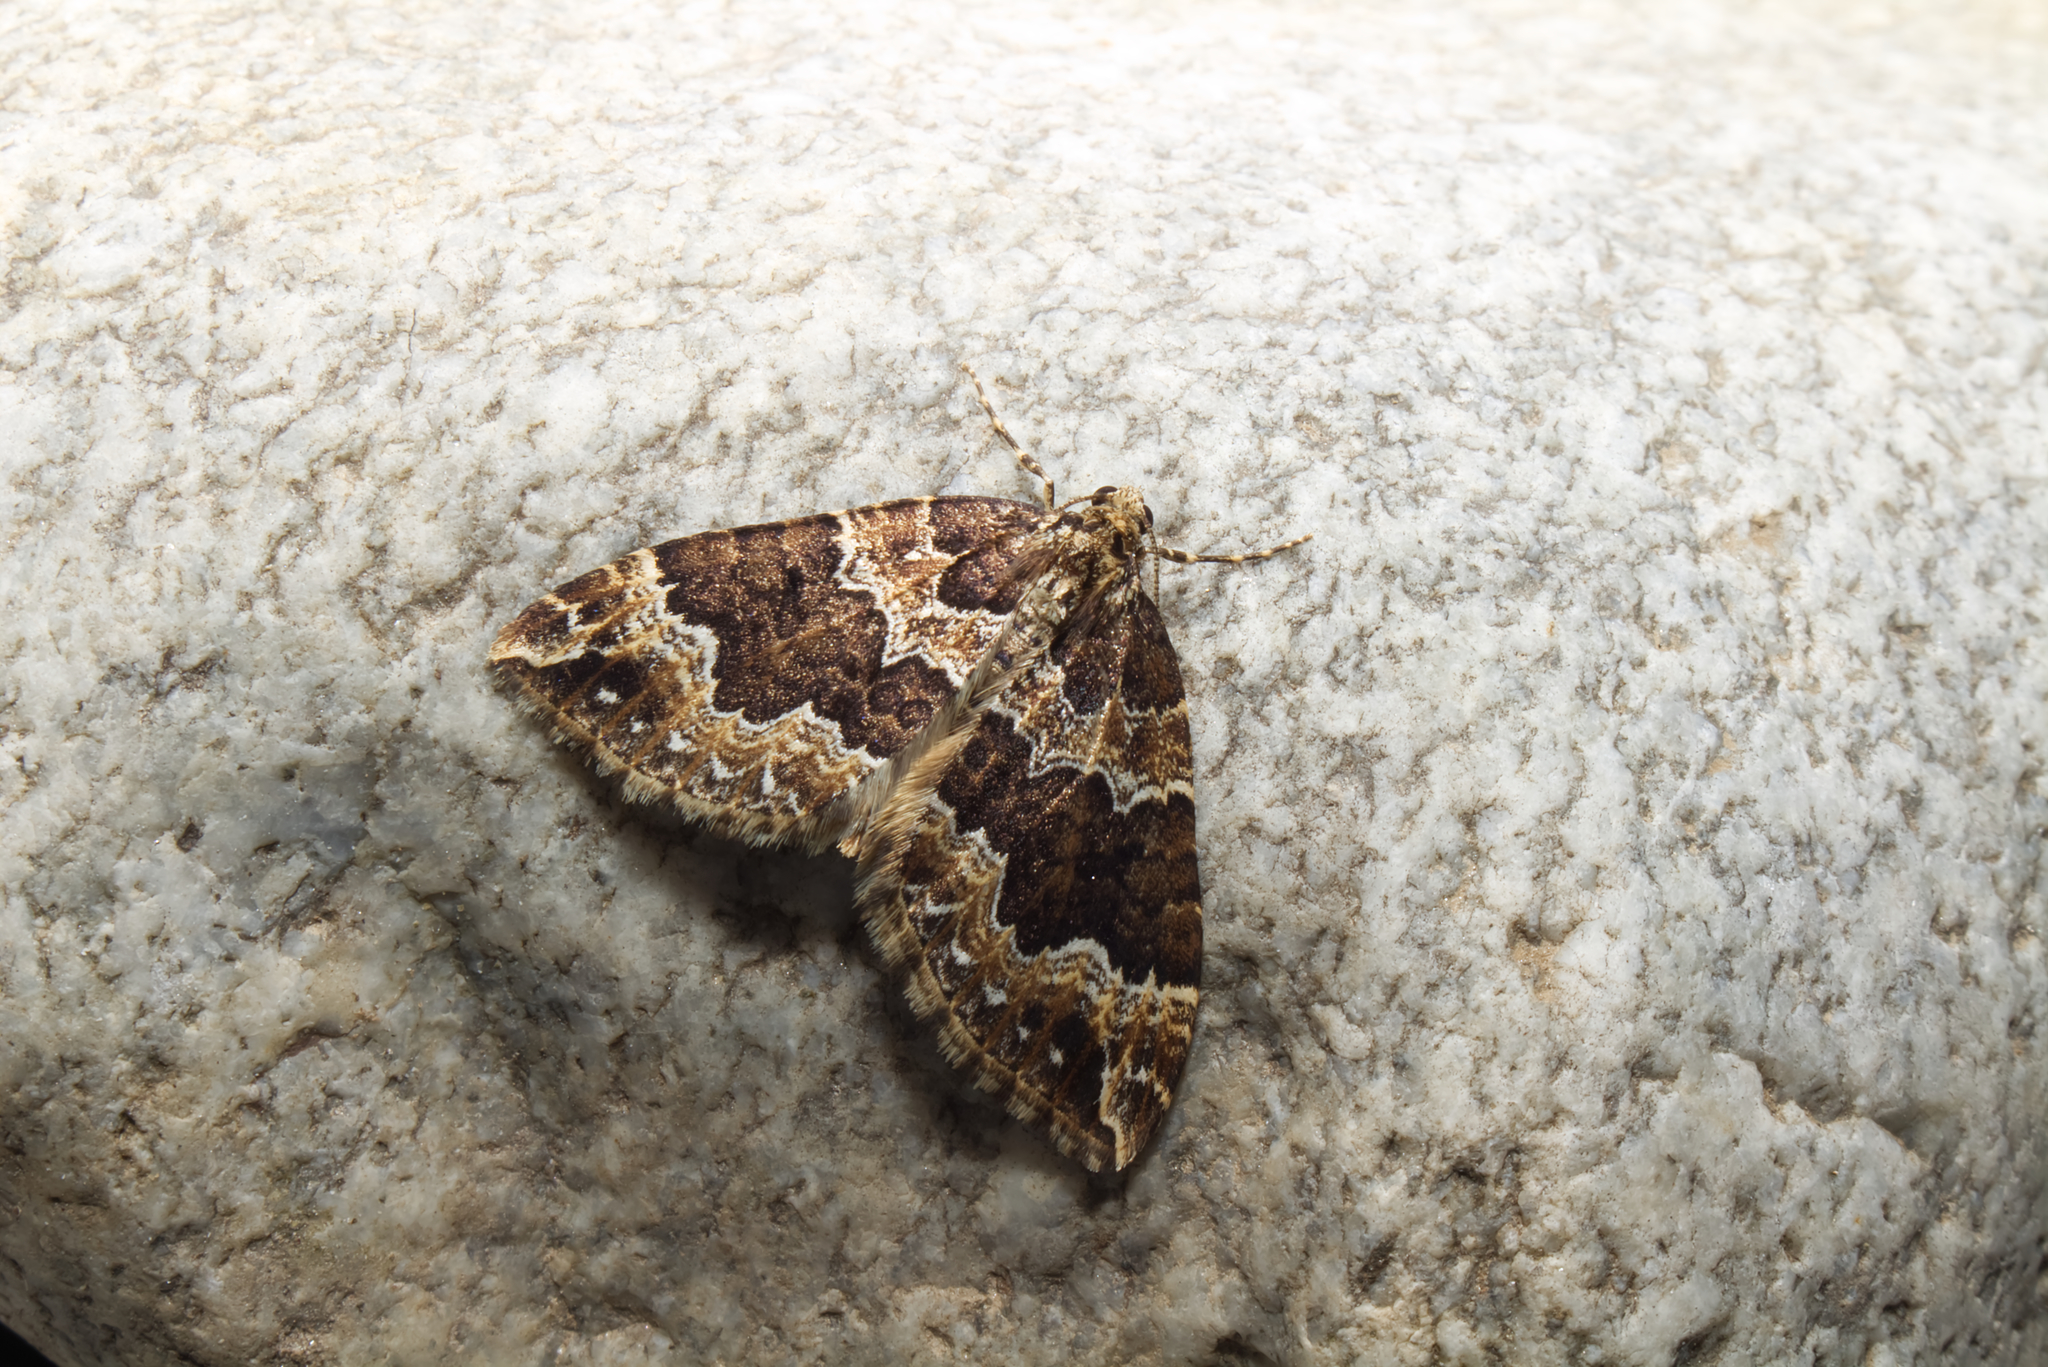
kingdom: Animalia
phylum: Arthropoda
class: Insecta
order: Lepidoptera
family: Geometridae
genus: Lampropteryx
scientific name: Lampropteryx suffumata
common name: Water carpet
